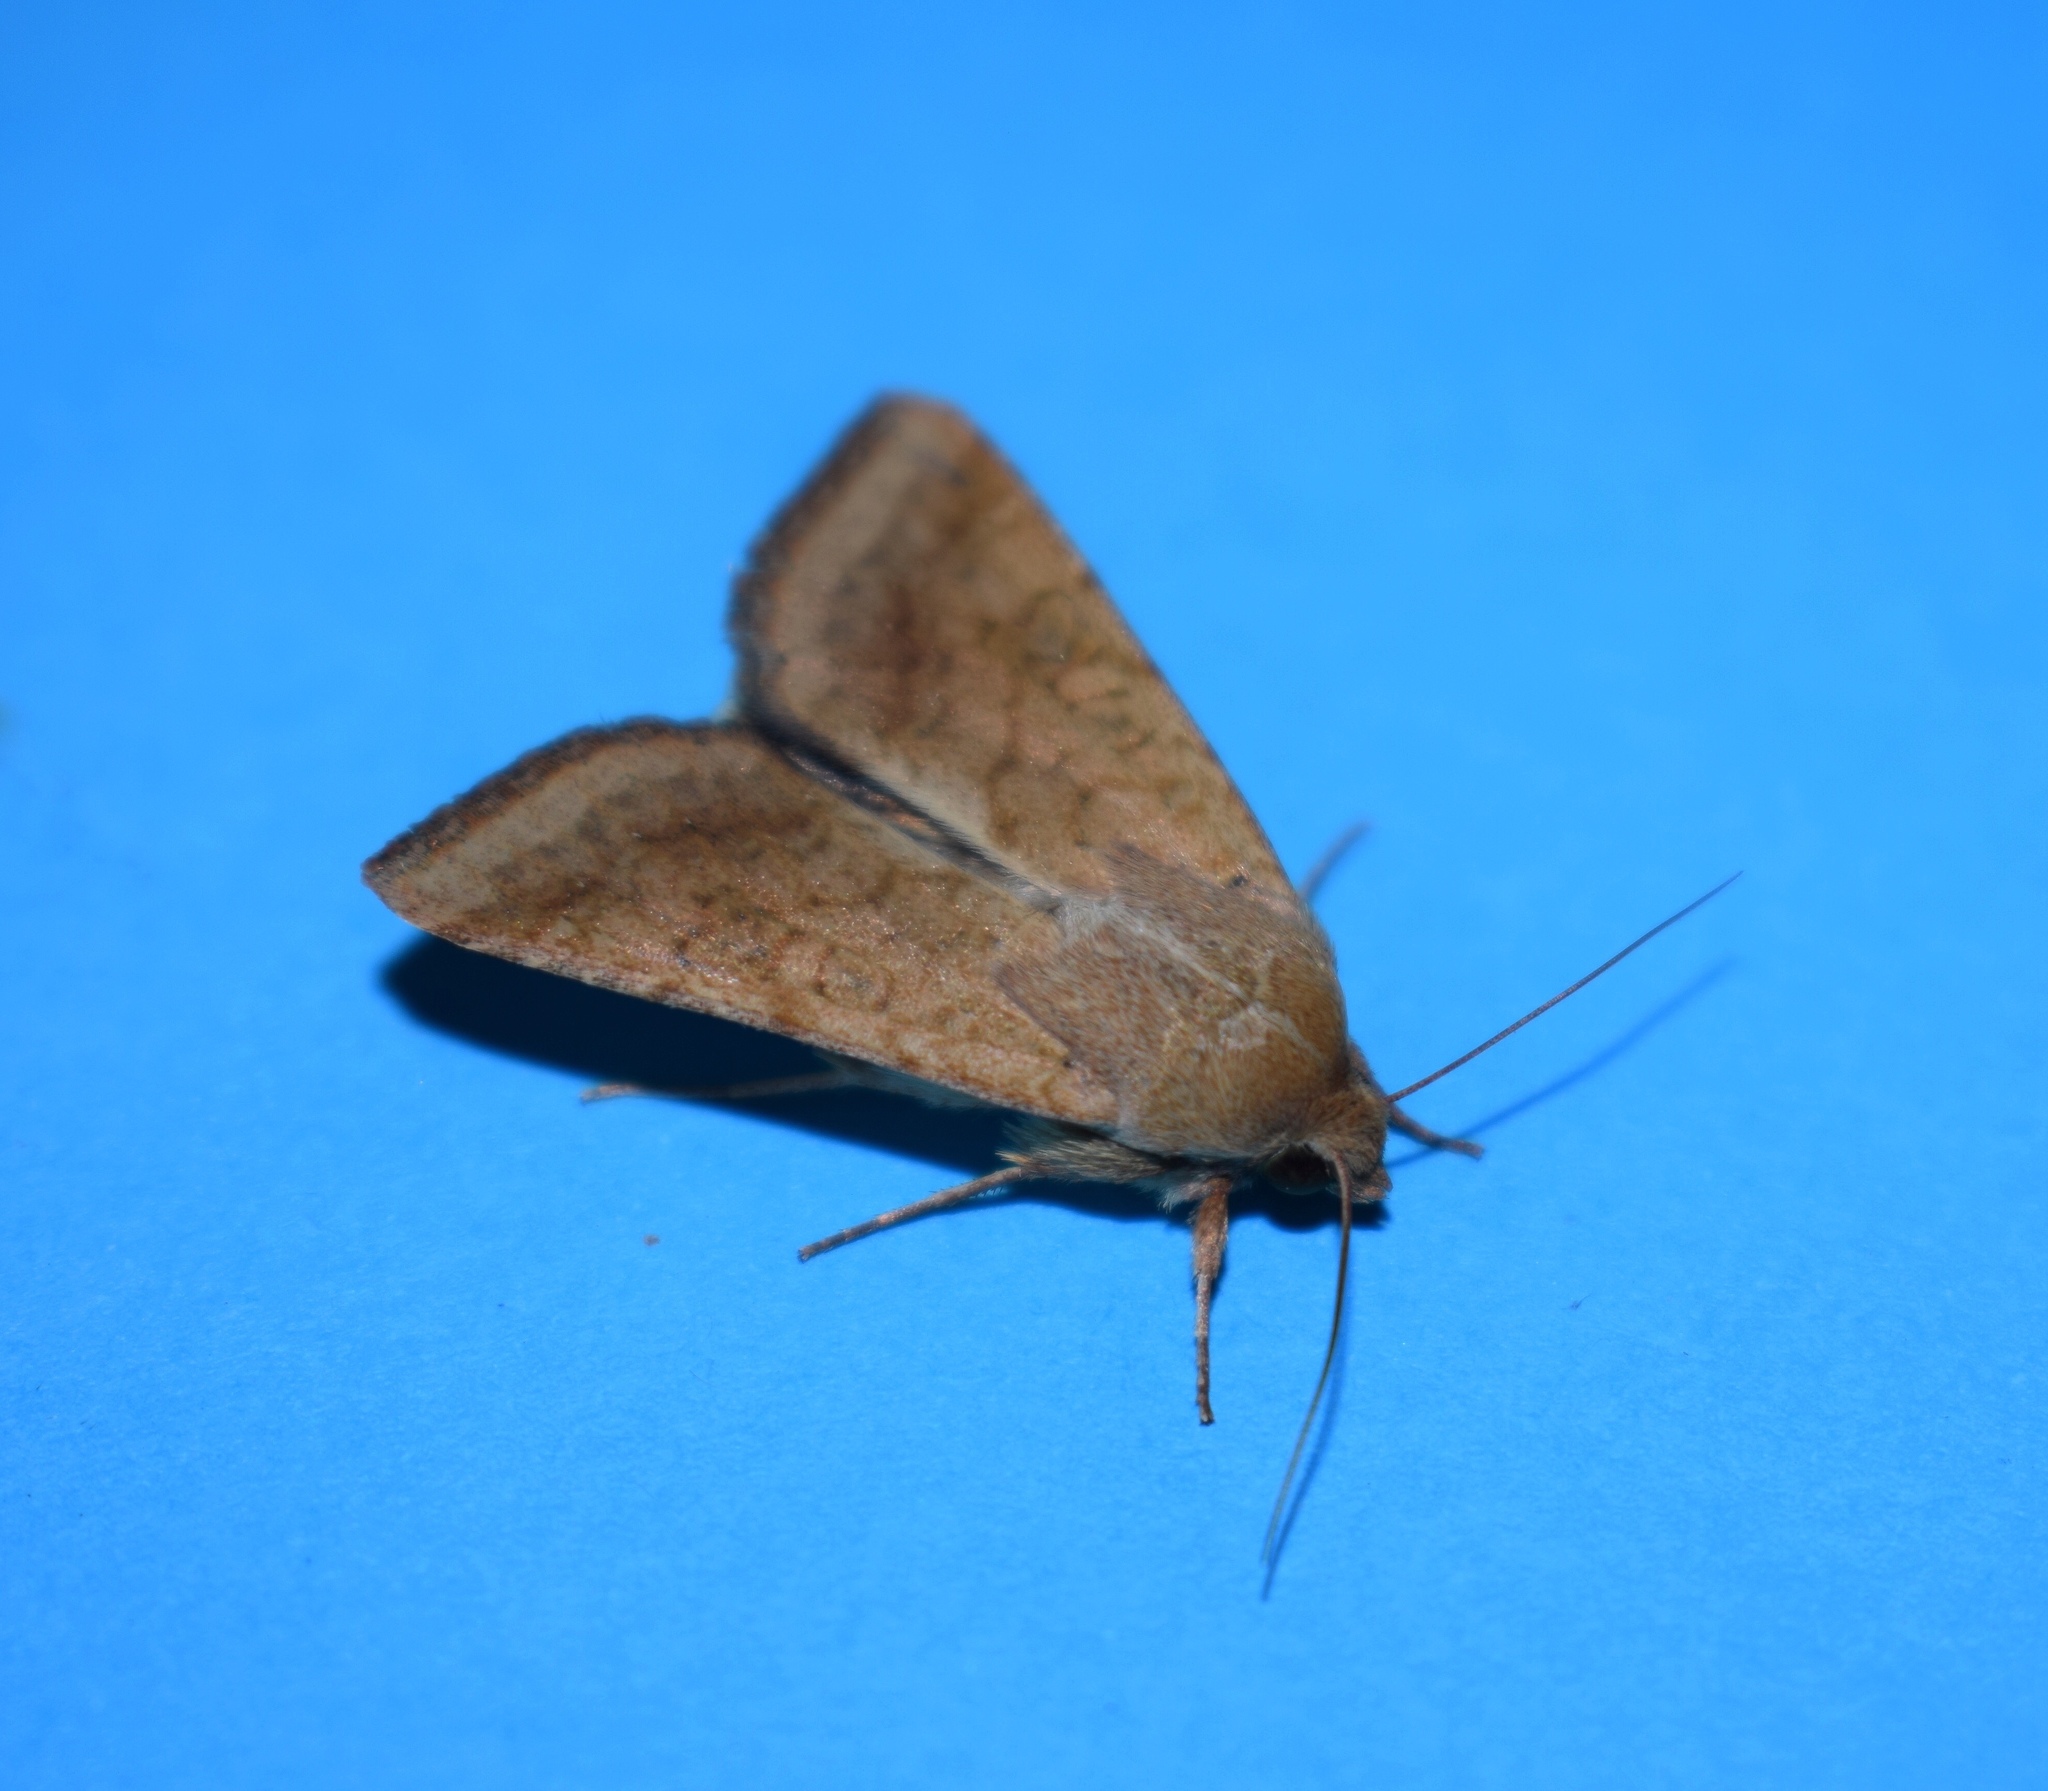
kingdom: Animalia
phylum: Arthropoda
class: Insecta
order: Lepidoptera
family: Noctuidae
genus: Helicoverpa
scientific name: Helicoverpa armigera
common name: Cotton bollworm
